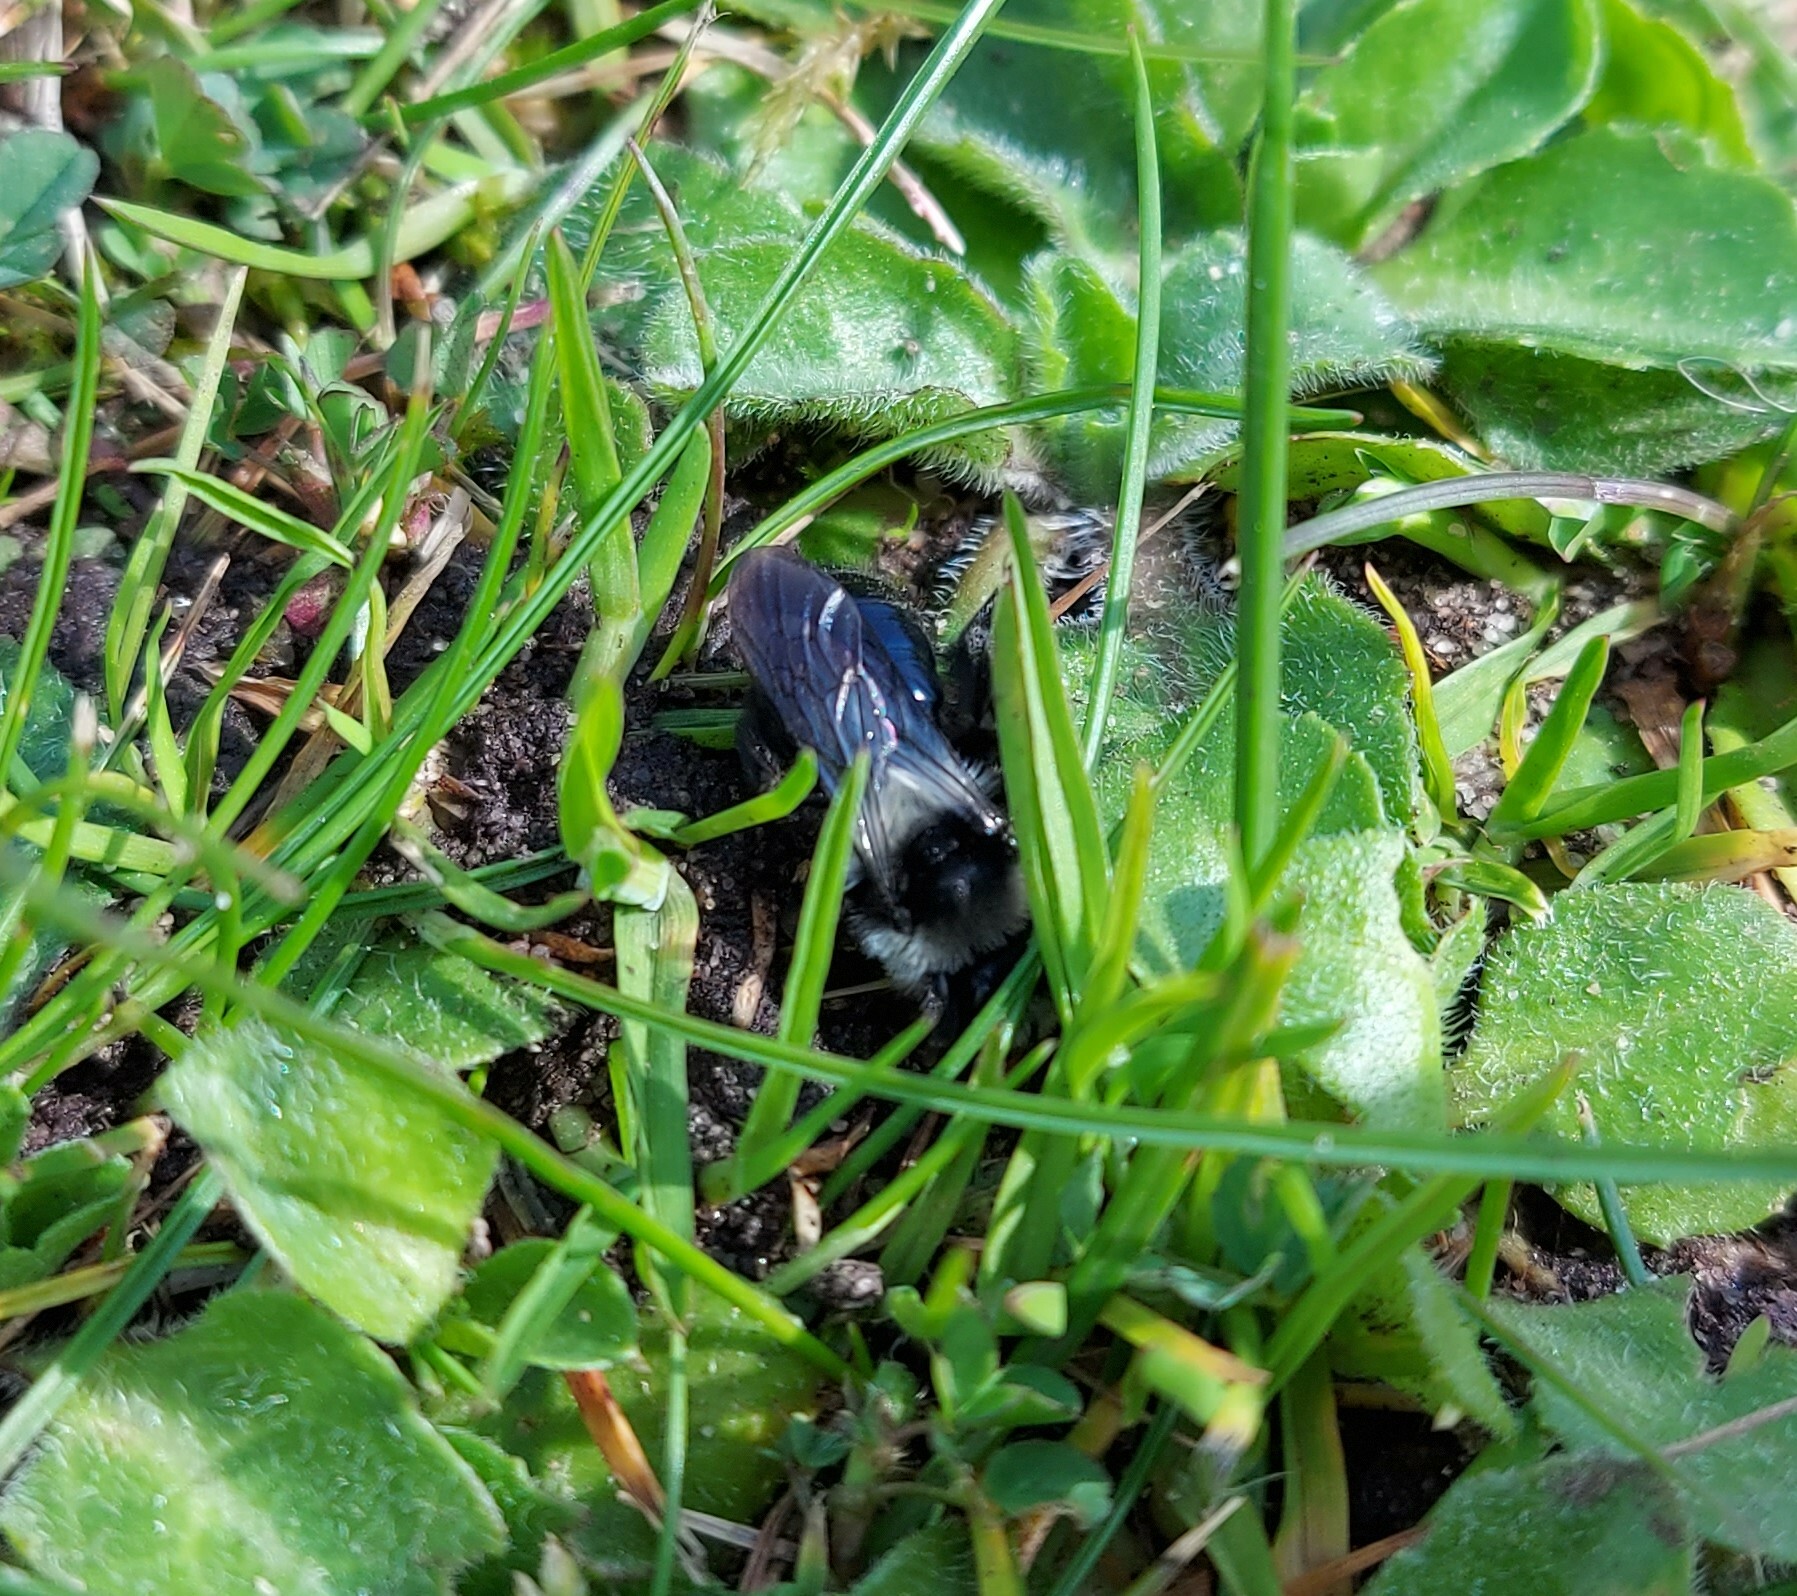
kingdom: Animalia
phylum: Arthropoda
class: Insecta
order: Hymenoptera
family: Andrenidae
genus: Andrena
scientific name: Andrena cineraria
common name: Ashy mining bee
